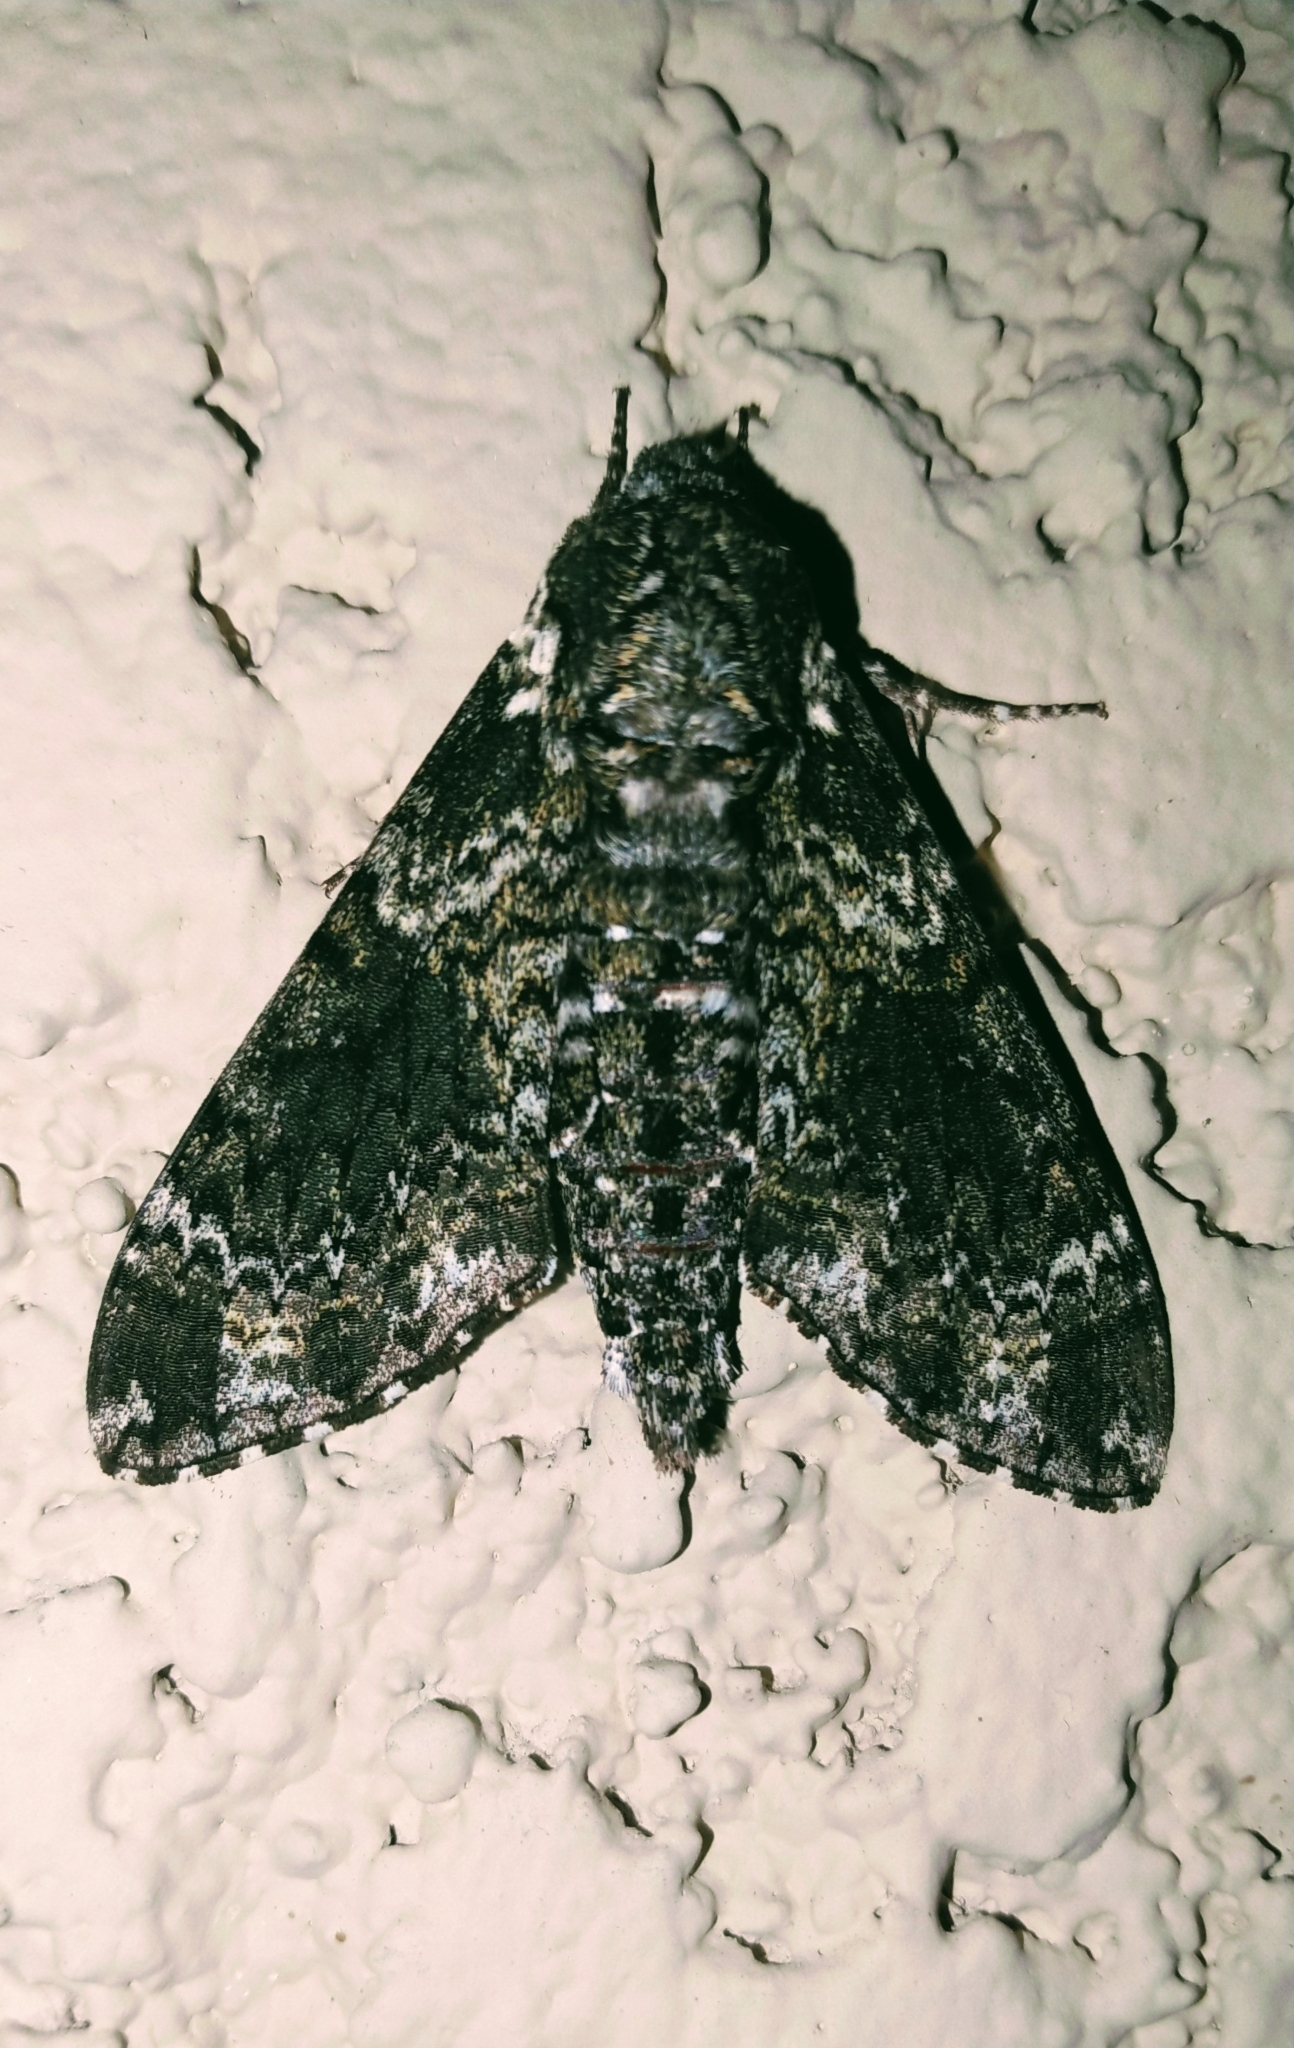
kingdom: Animalia
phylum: Arthropoda
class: Insecta
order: Lepidoptera
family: Sphingidae
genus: Dolba
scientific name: Dolba hyloeus
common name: Pawpaw sphinx
